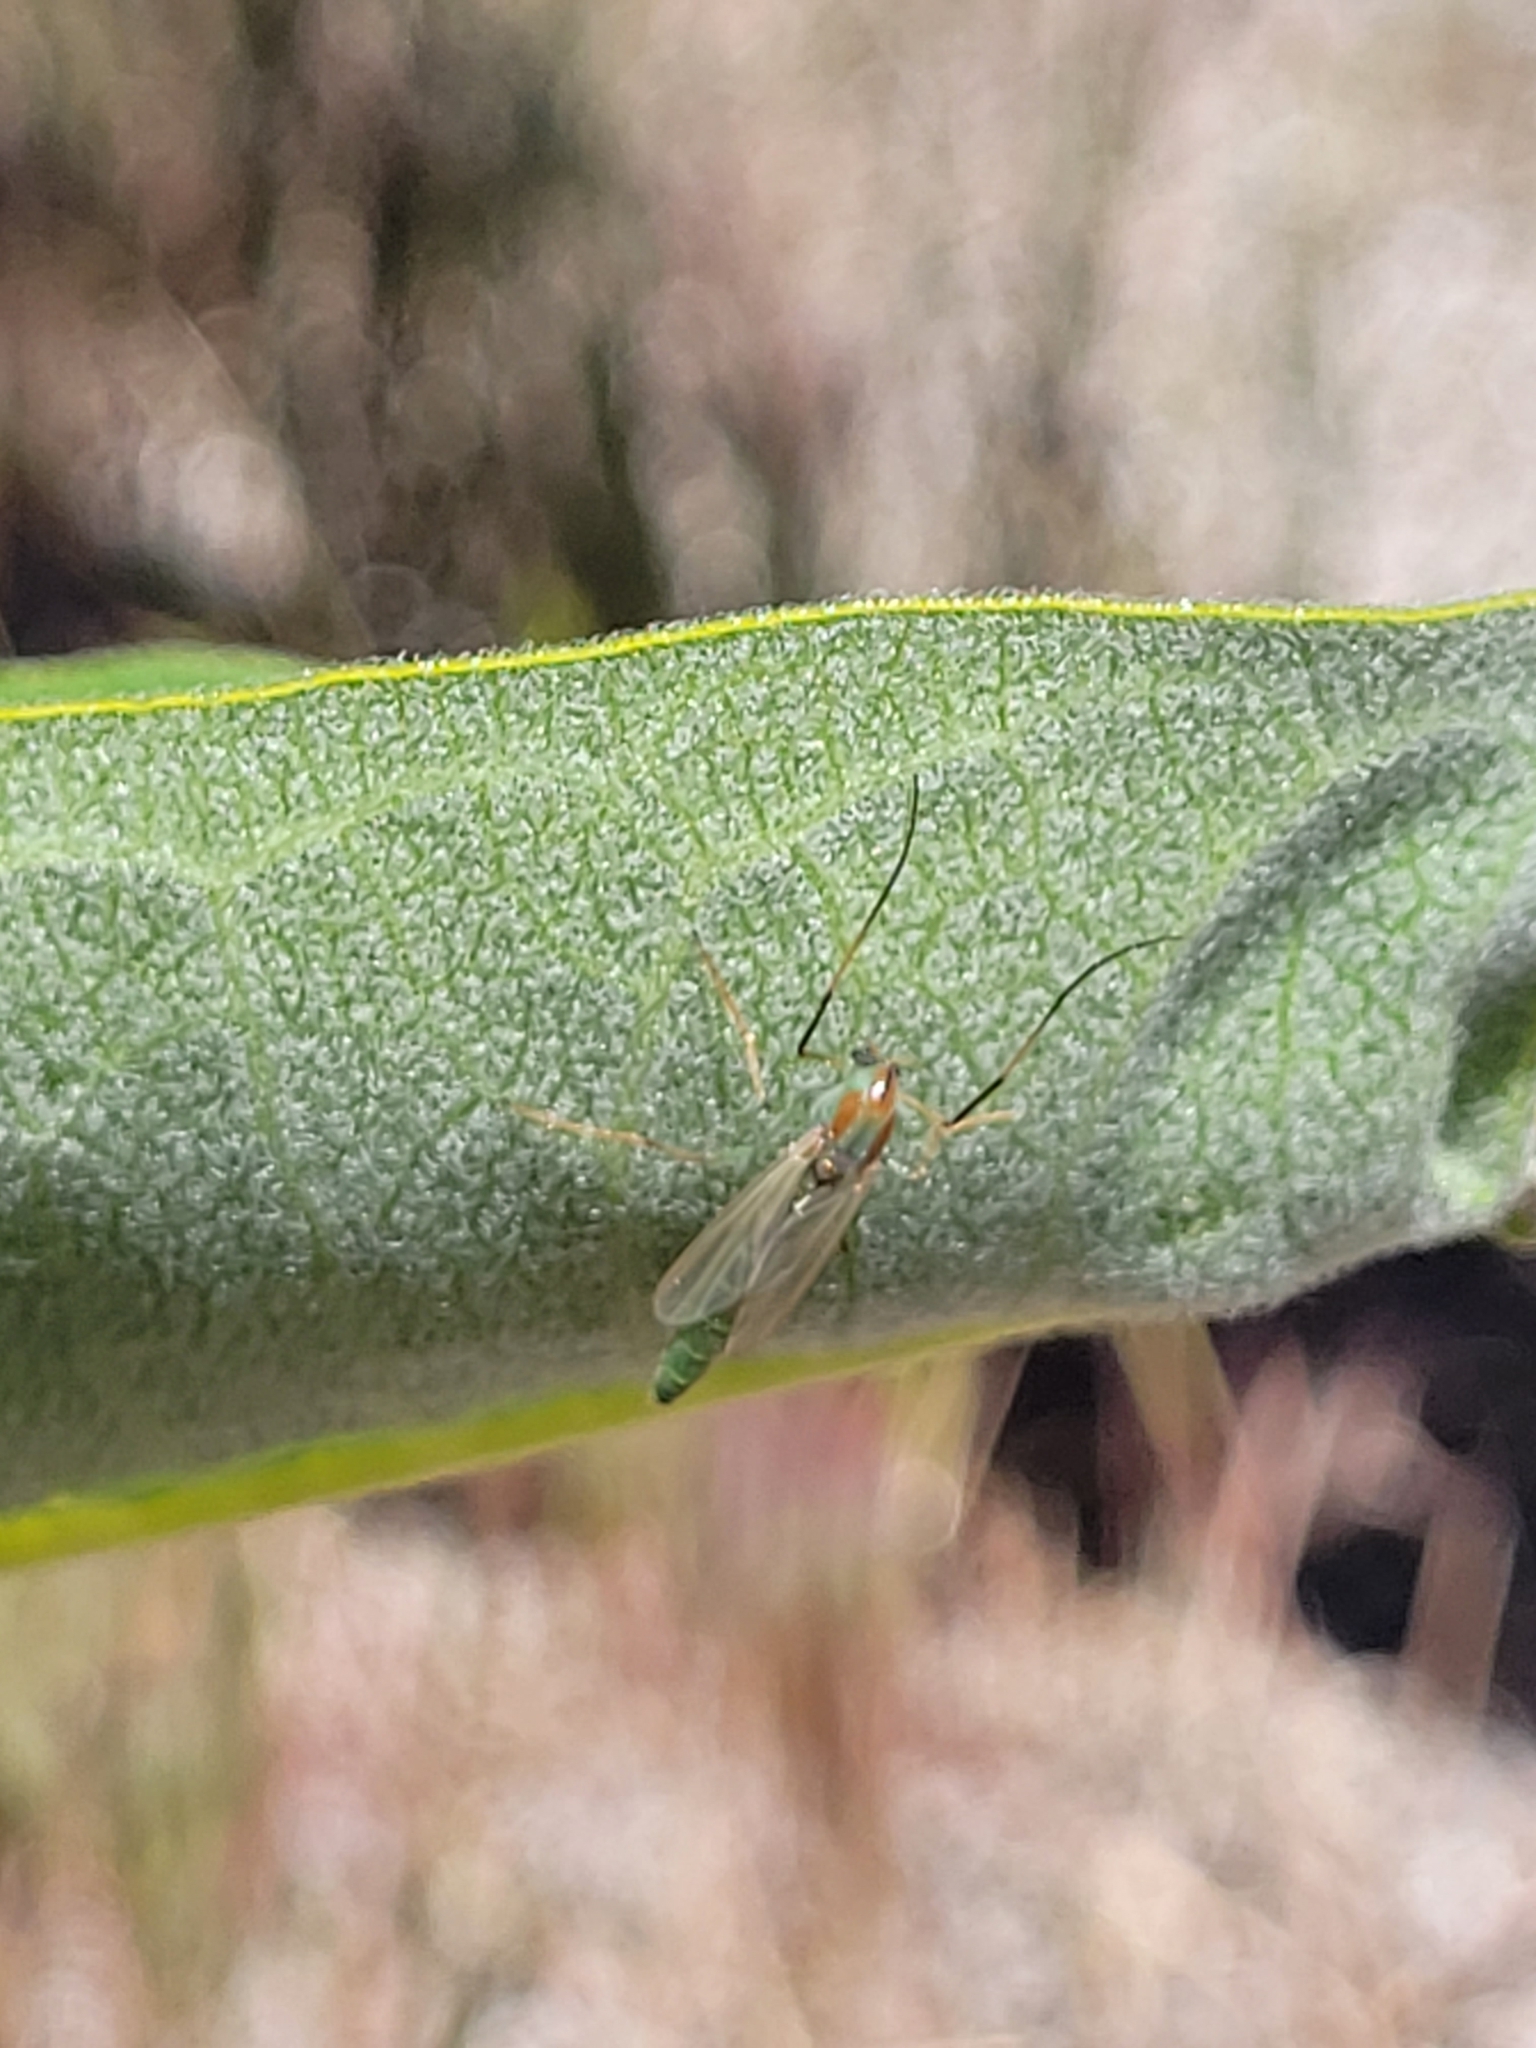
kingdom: Animalia
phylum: Arthropoda
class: Insecta
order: Diptera
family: Chironomidae
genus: Axarus
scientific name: Axarus
